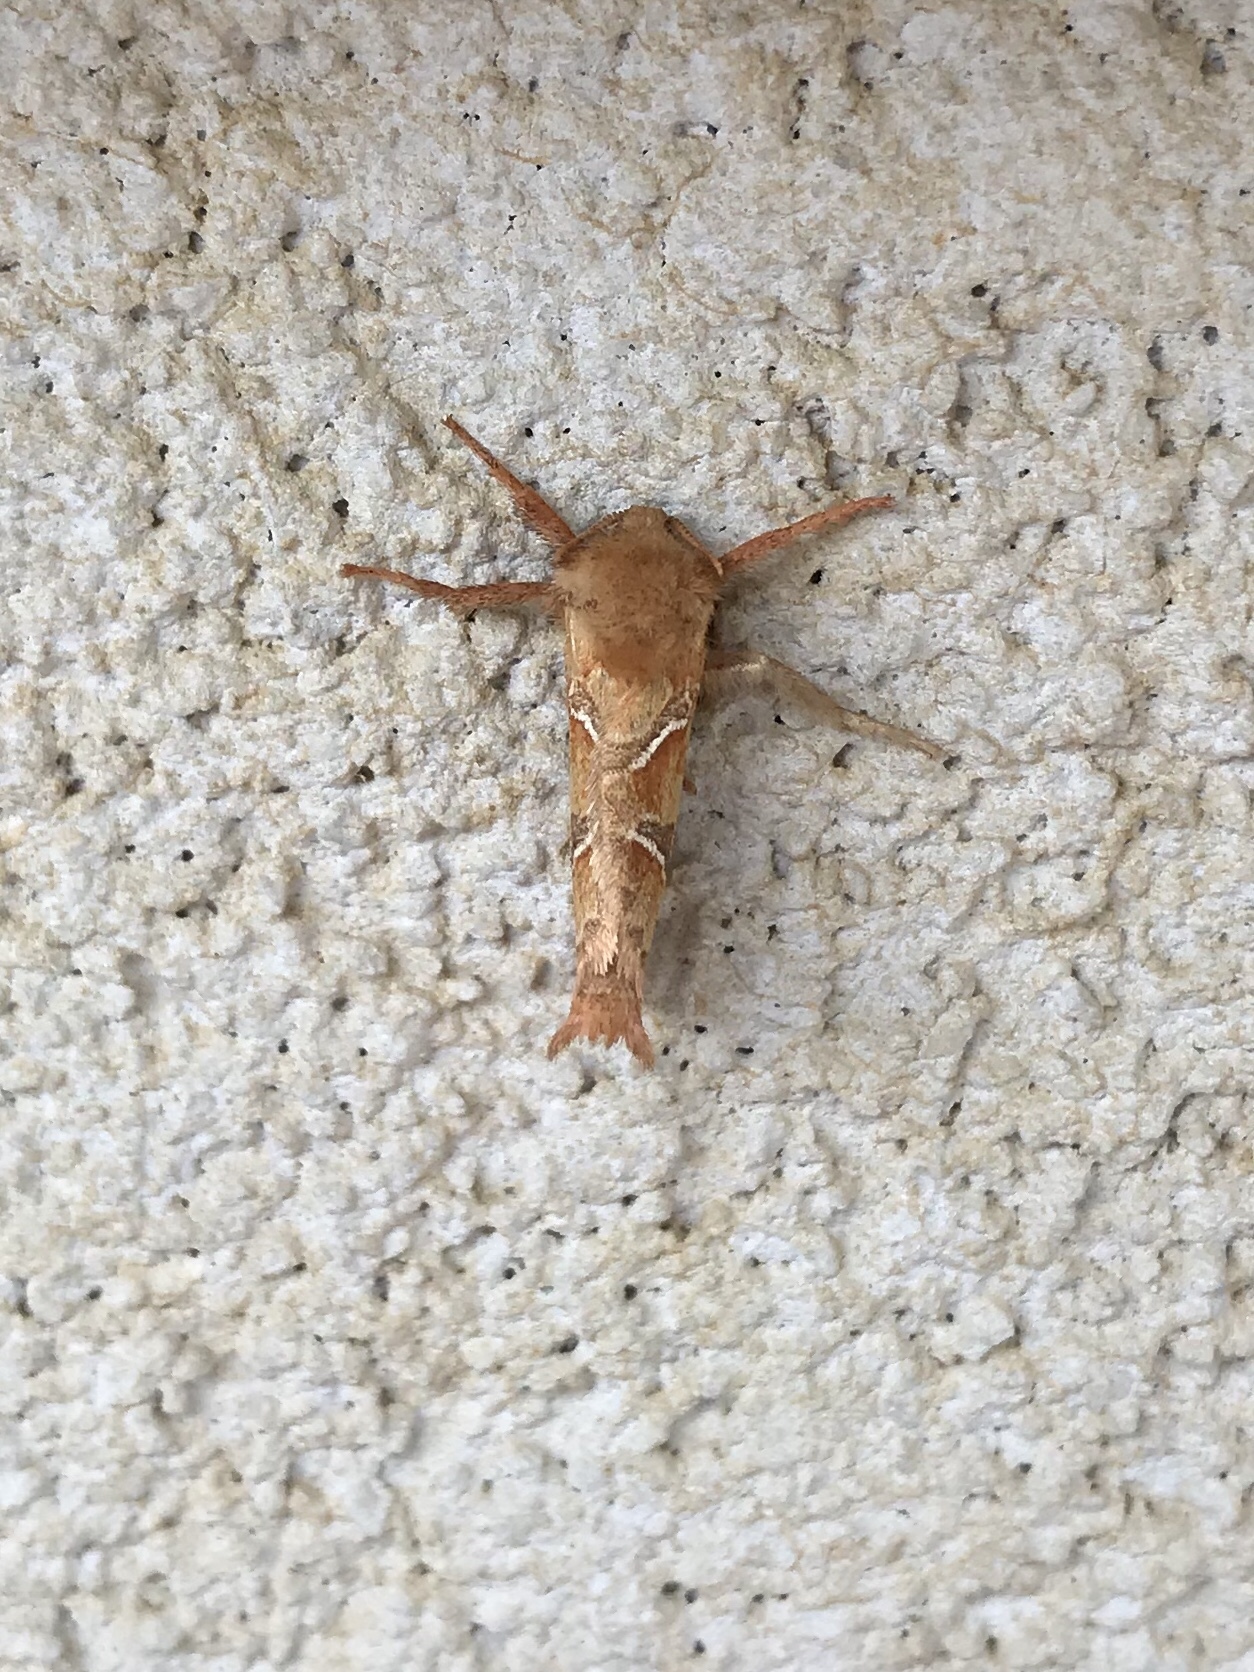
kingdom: Animalia
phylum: Arthropoda
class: Insecta
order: Lepidoptera
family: Hepialidae
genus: Triodia
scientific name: Triodia sylvina
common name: Orange swift
